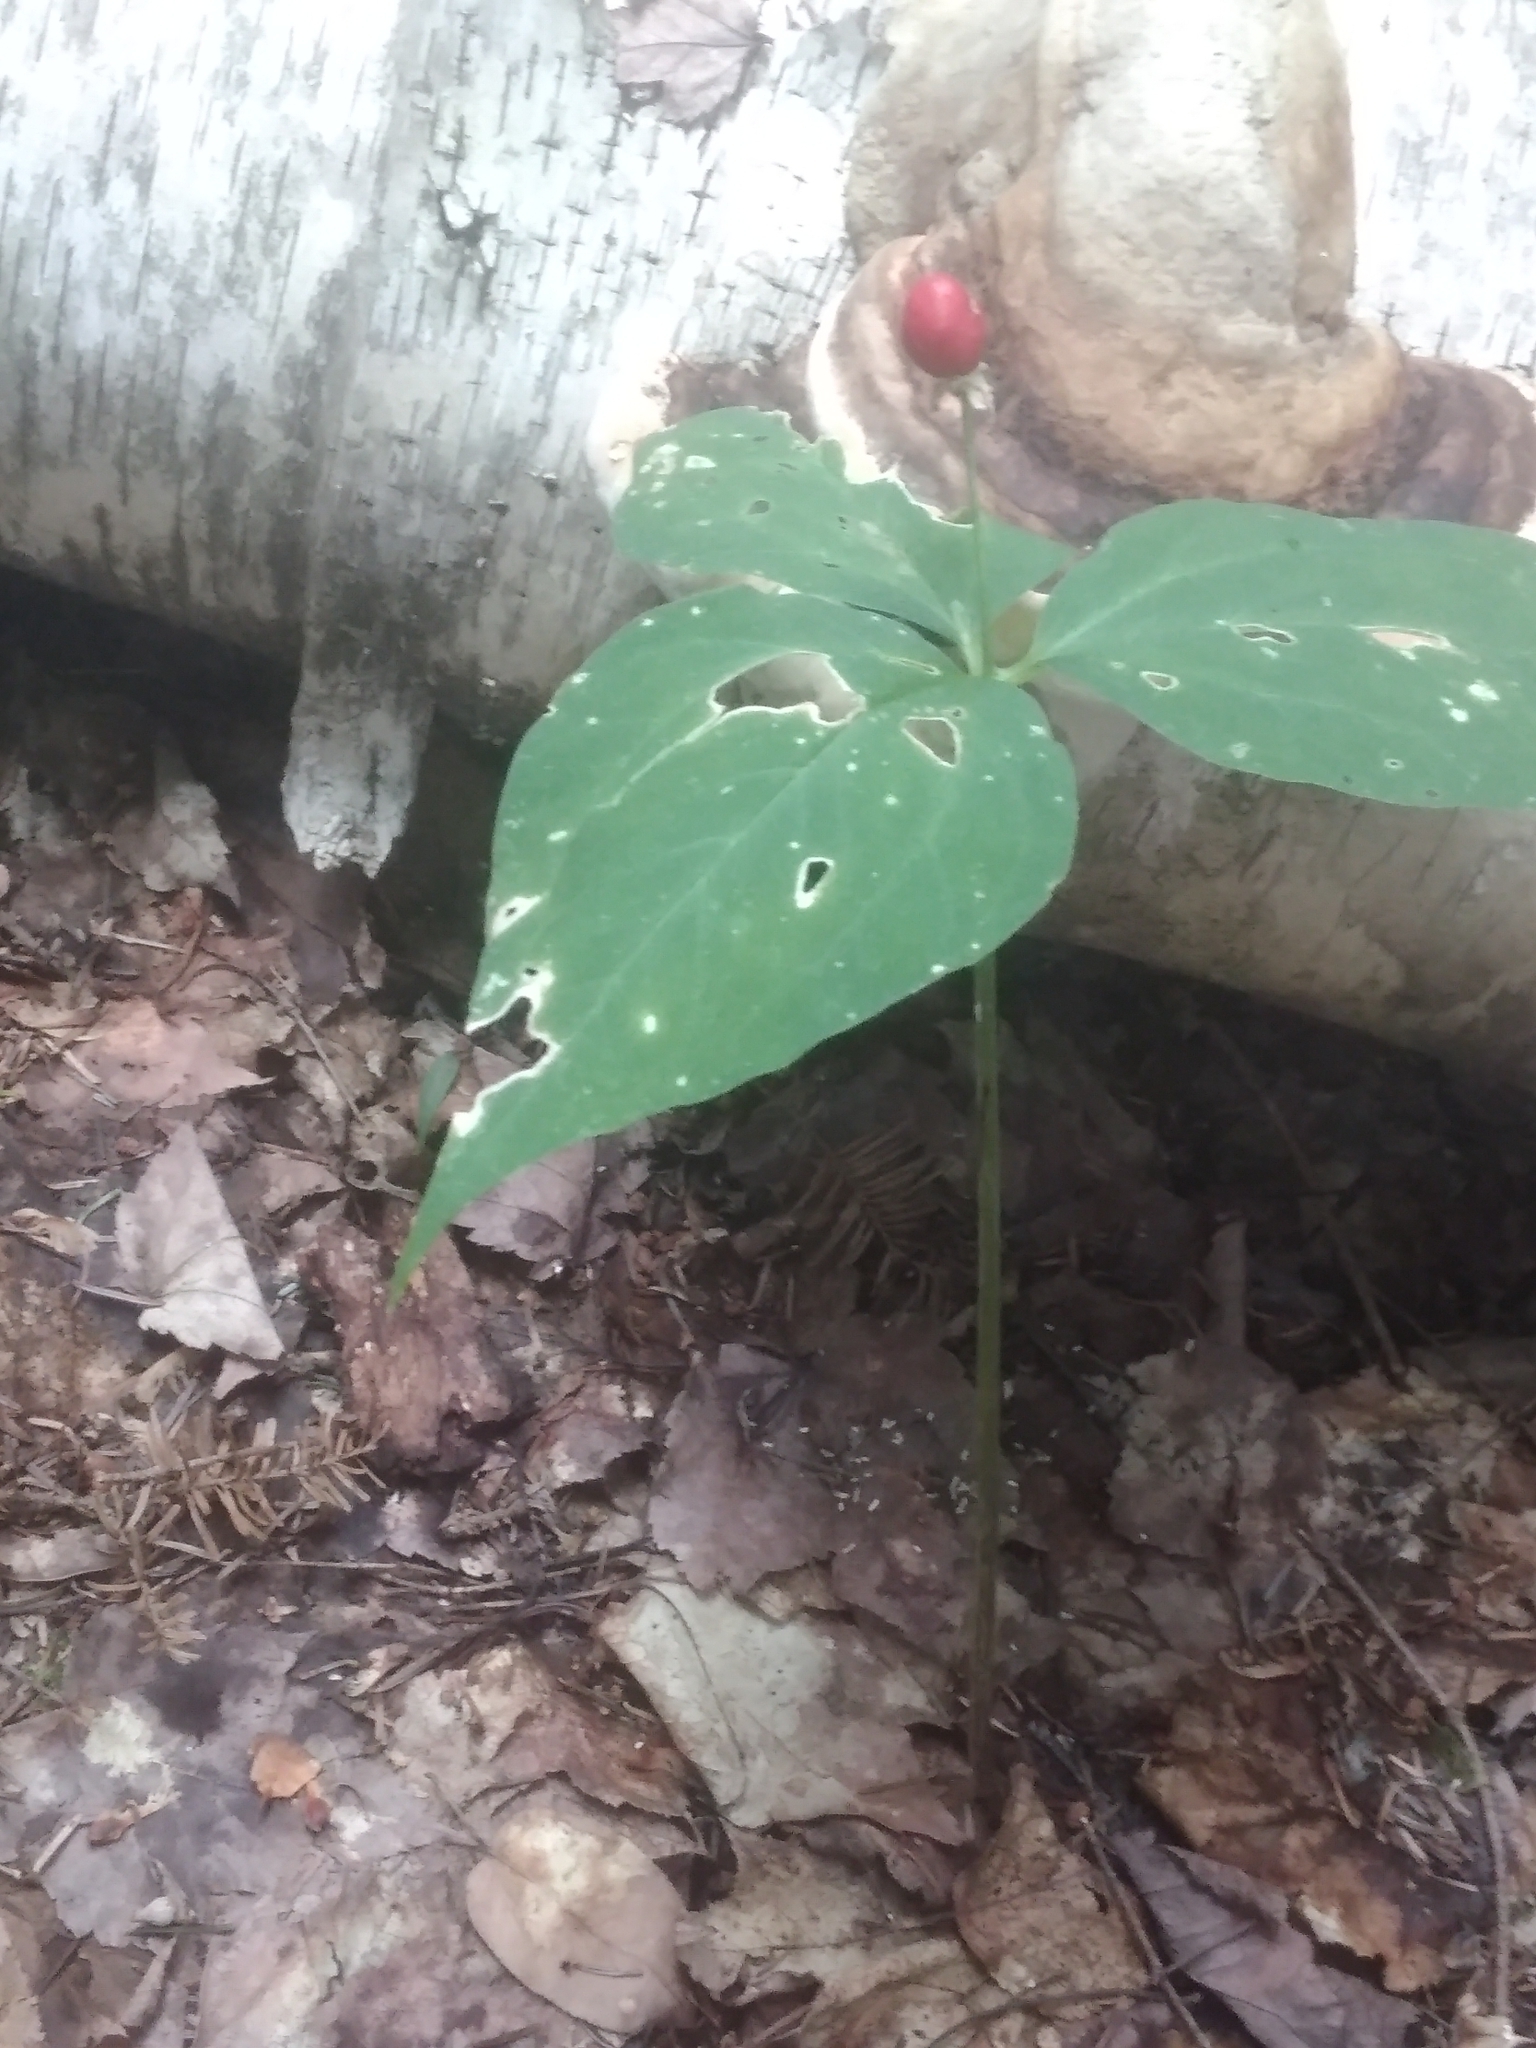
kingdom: Plantae
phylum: Tracheophyta
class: Liliopsida
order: Liliales
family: Melanthiaceae
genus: Trillium
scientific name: Trillium undulatum
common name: Paint trillium
